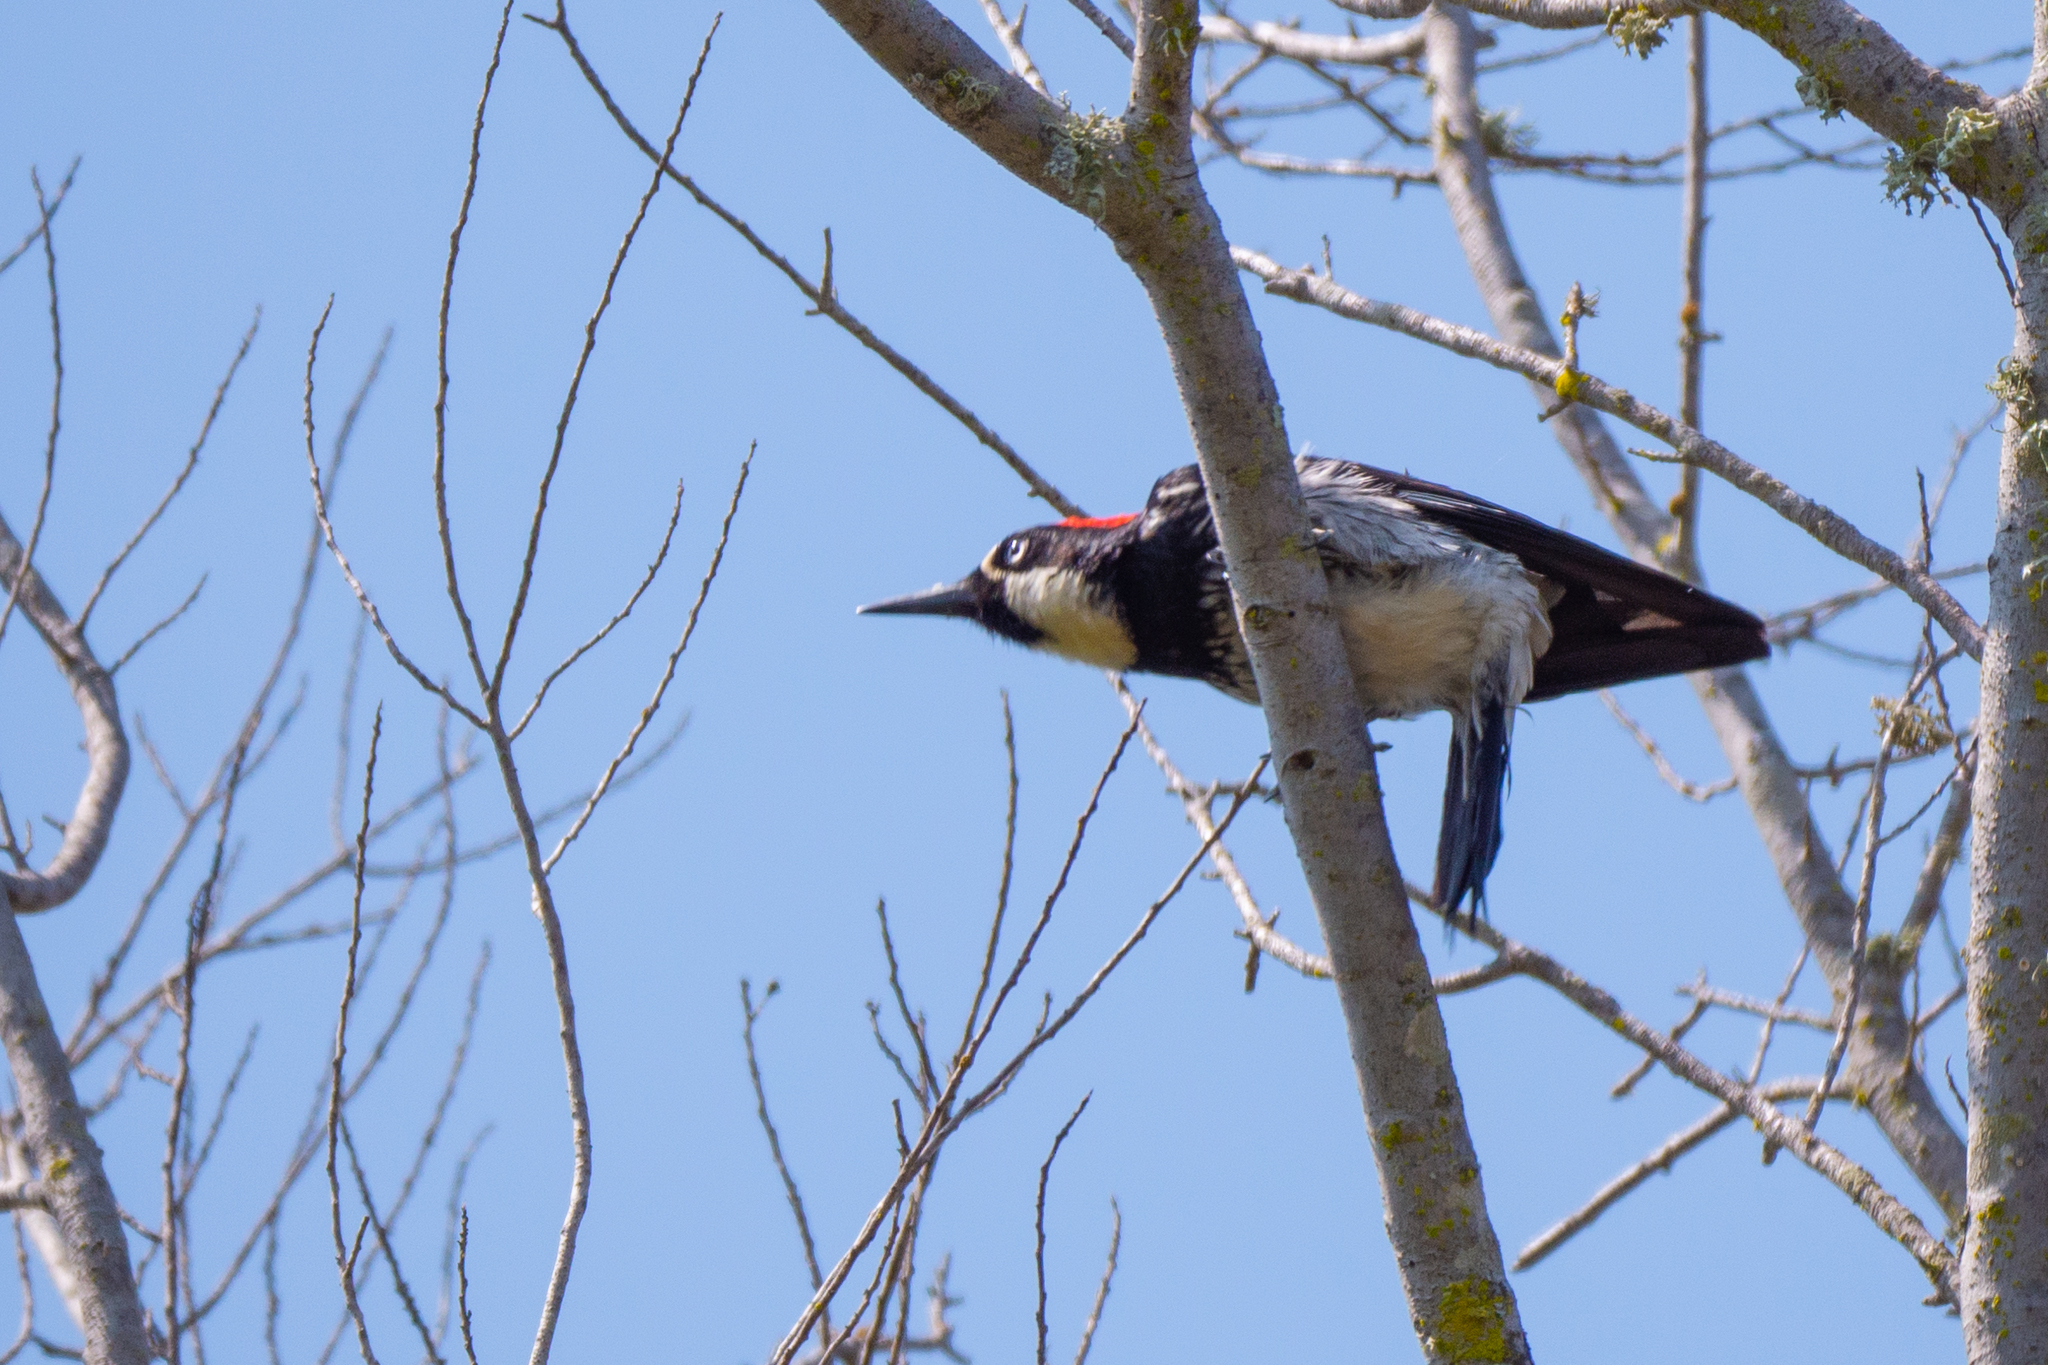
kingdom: Animalia
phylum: Chordata
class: Aves
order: Piciformes
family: Picidae
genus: Melanerpes
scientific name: Melanerpes formicivorus
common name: Acorn woodpecker
